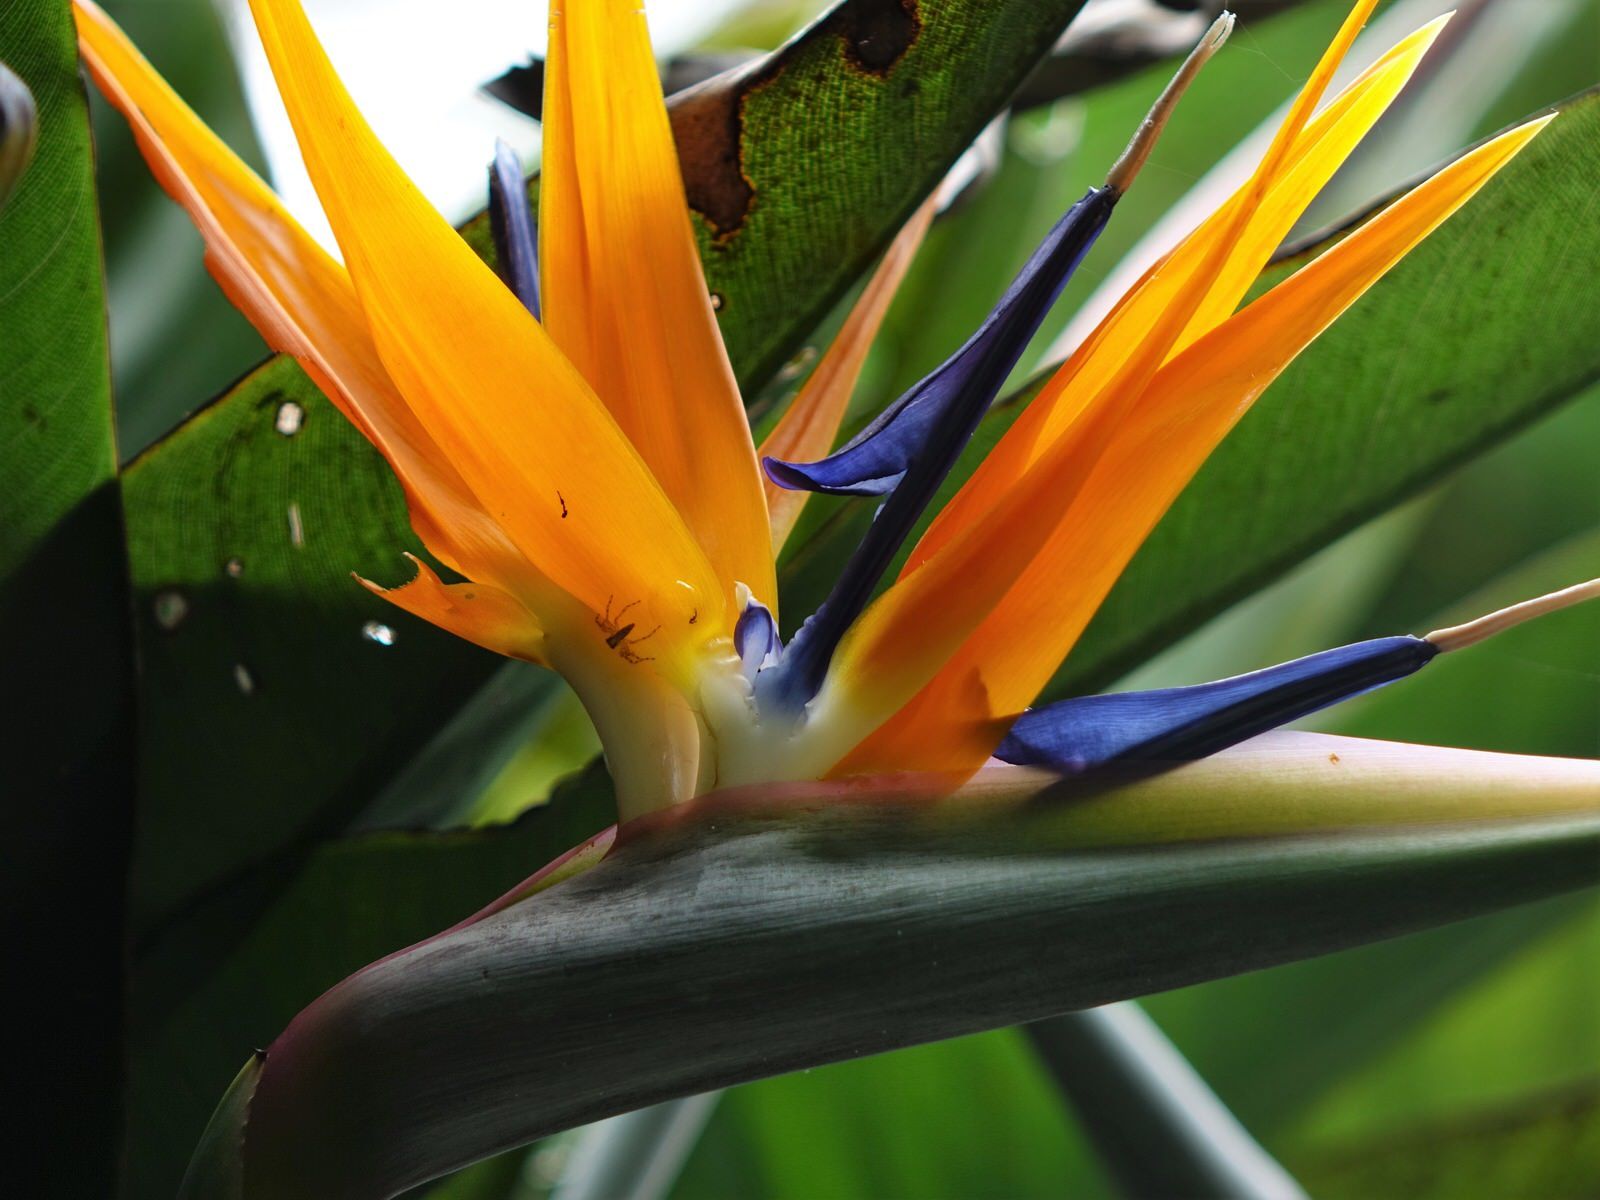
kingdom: Animalia
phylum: Arthropoda
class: Arachnida
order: Araneae
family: Salticidae
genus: Helpis
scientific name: Helpis minitabunda
